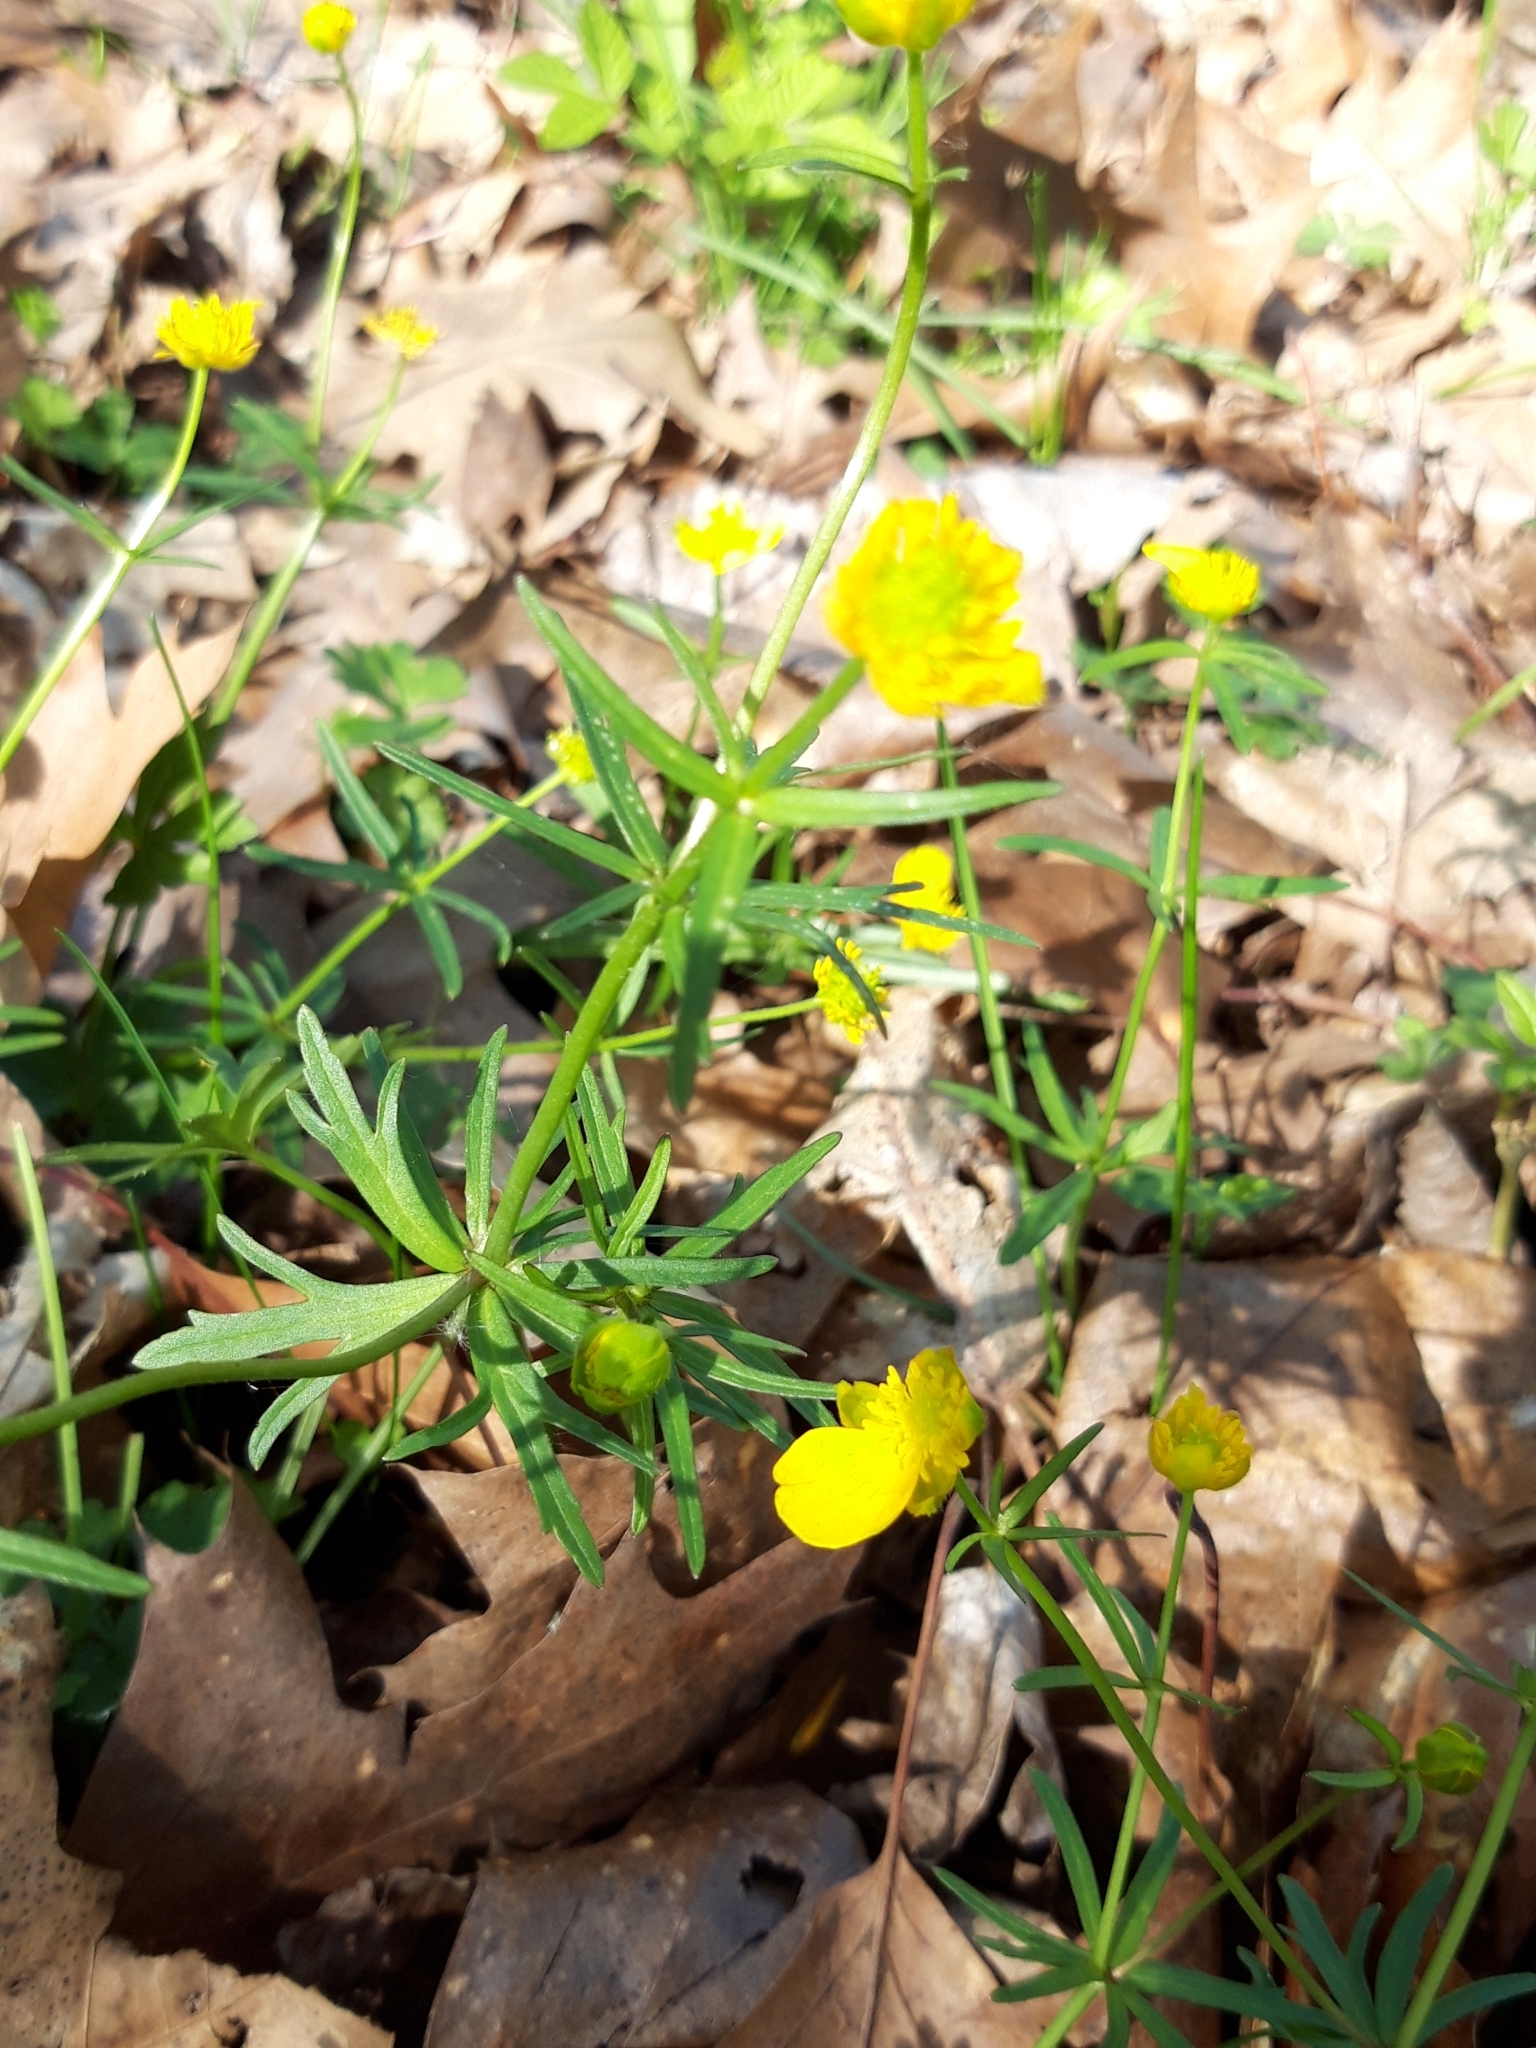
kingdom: Plantae
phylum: Tracheophyta
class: Magnoliopsida
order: Ranunculales
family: Ranunculaceae
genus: Ranunculus
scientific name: Ranunculus auricomus
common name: Goldilocks buttercup
